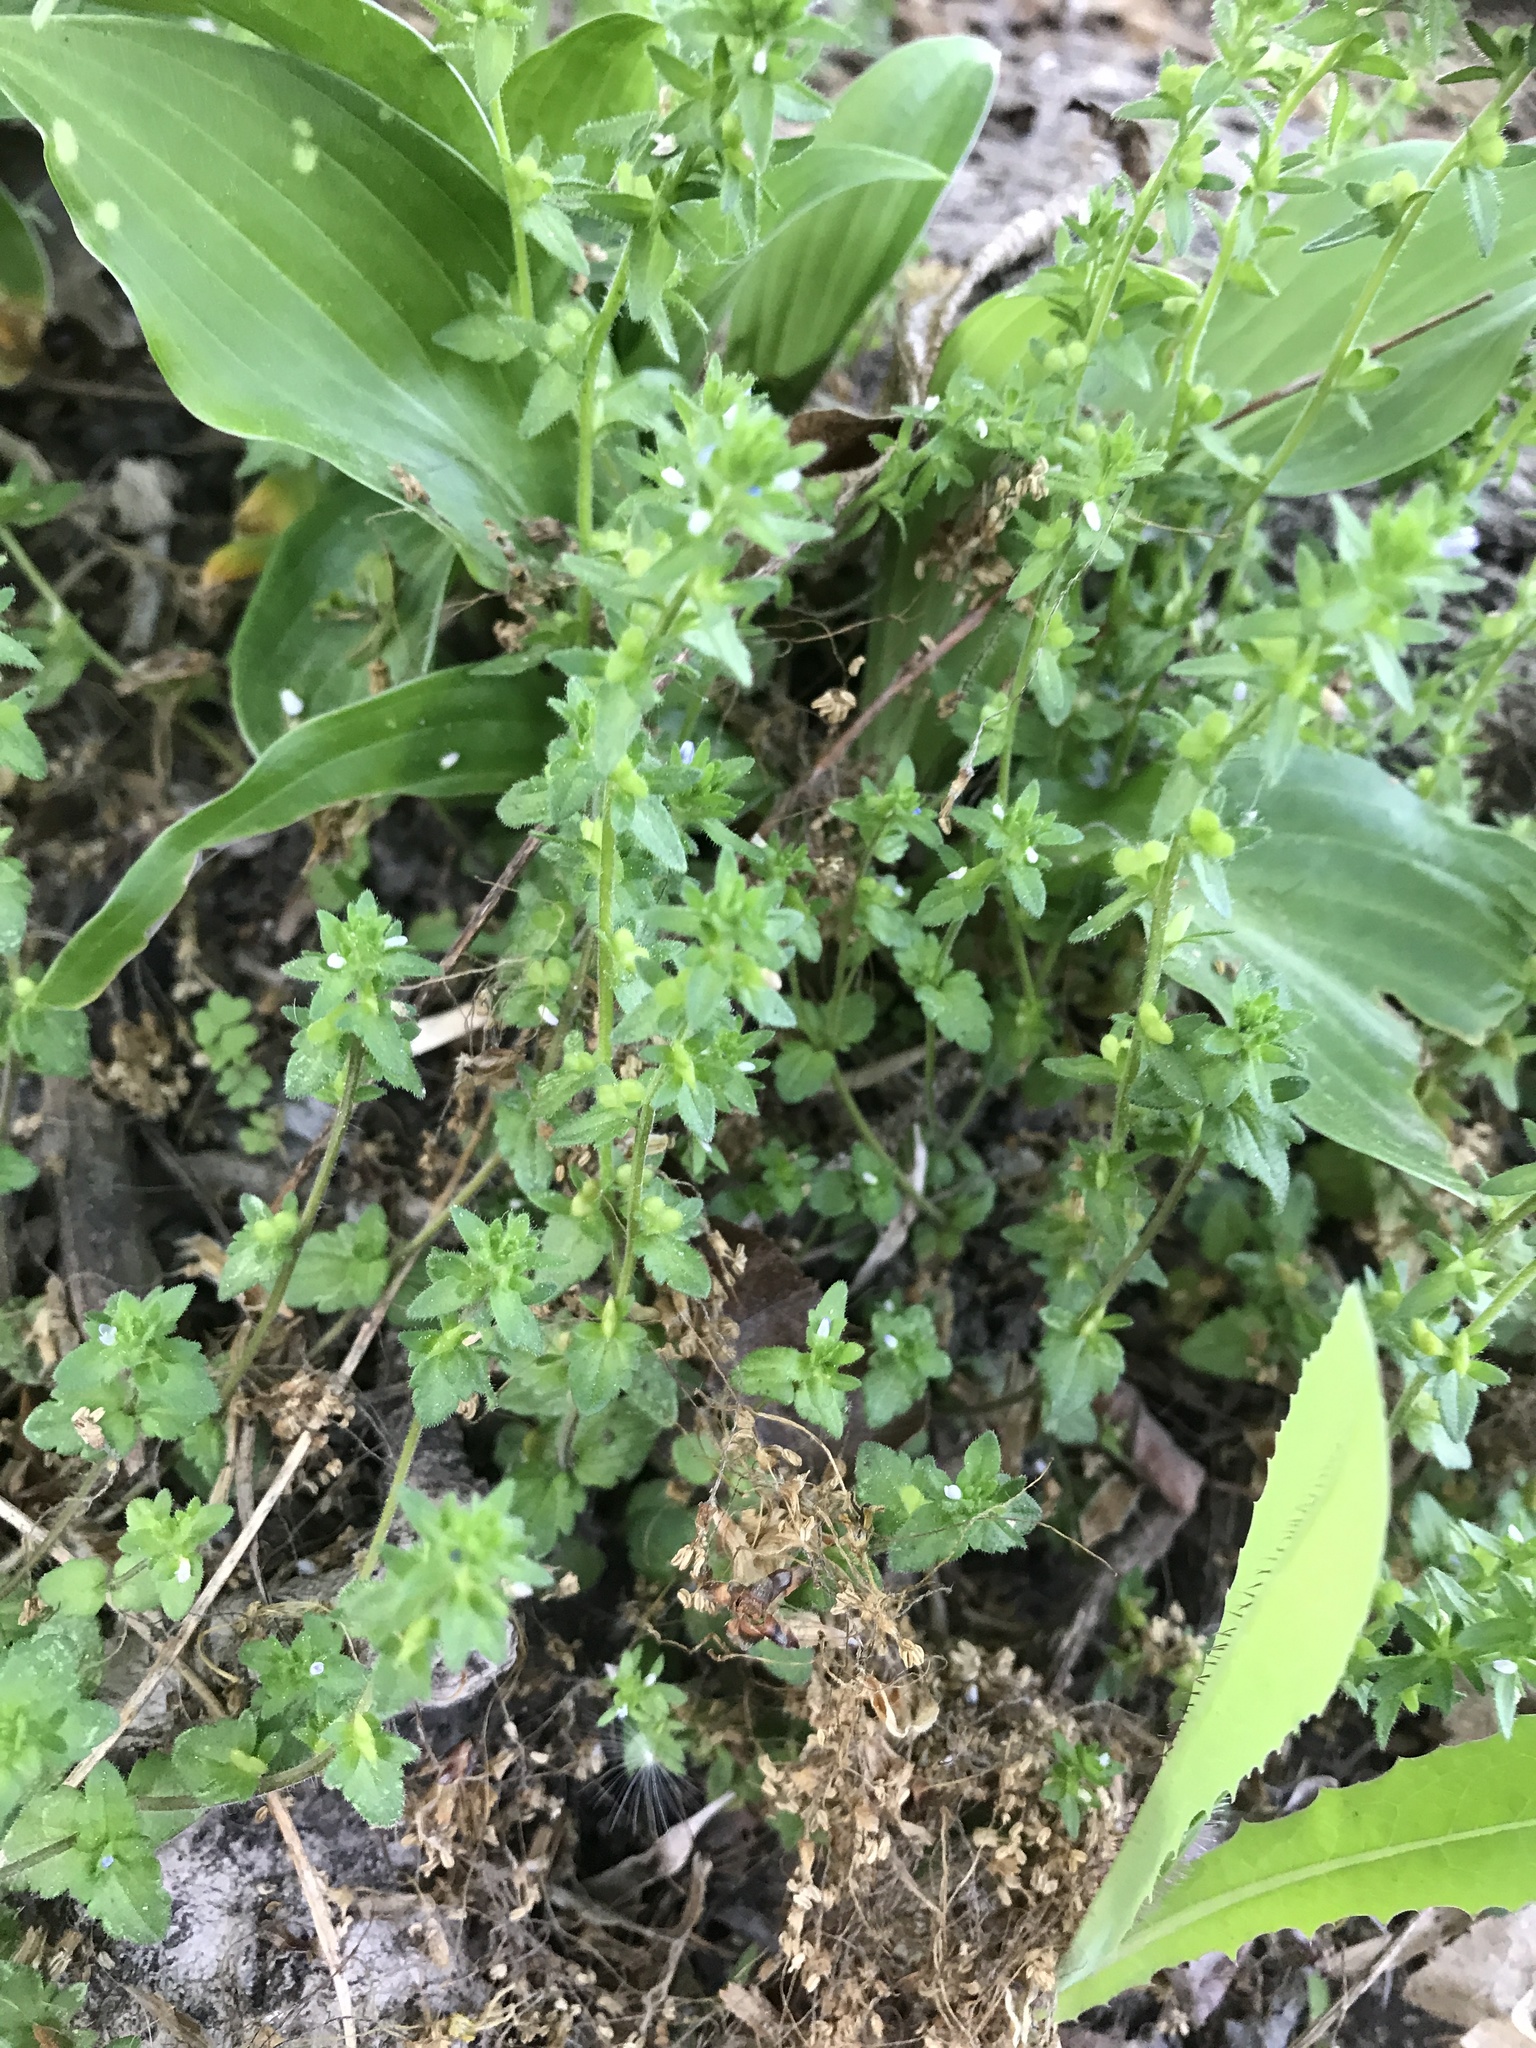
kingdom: Plantae
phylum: Tracheophyta
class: Magnoliopsida
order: Lamiales
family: Plantaginaceae
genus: Veronica
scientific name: Veronica arvensis
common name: Corn speedwell
